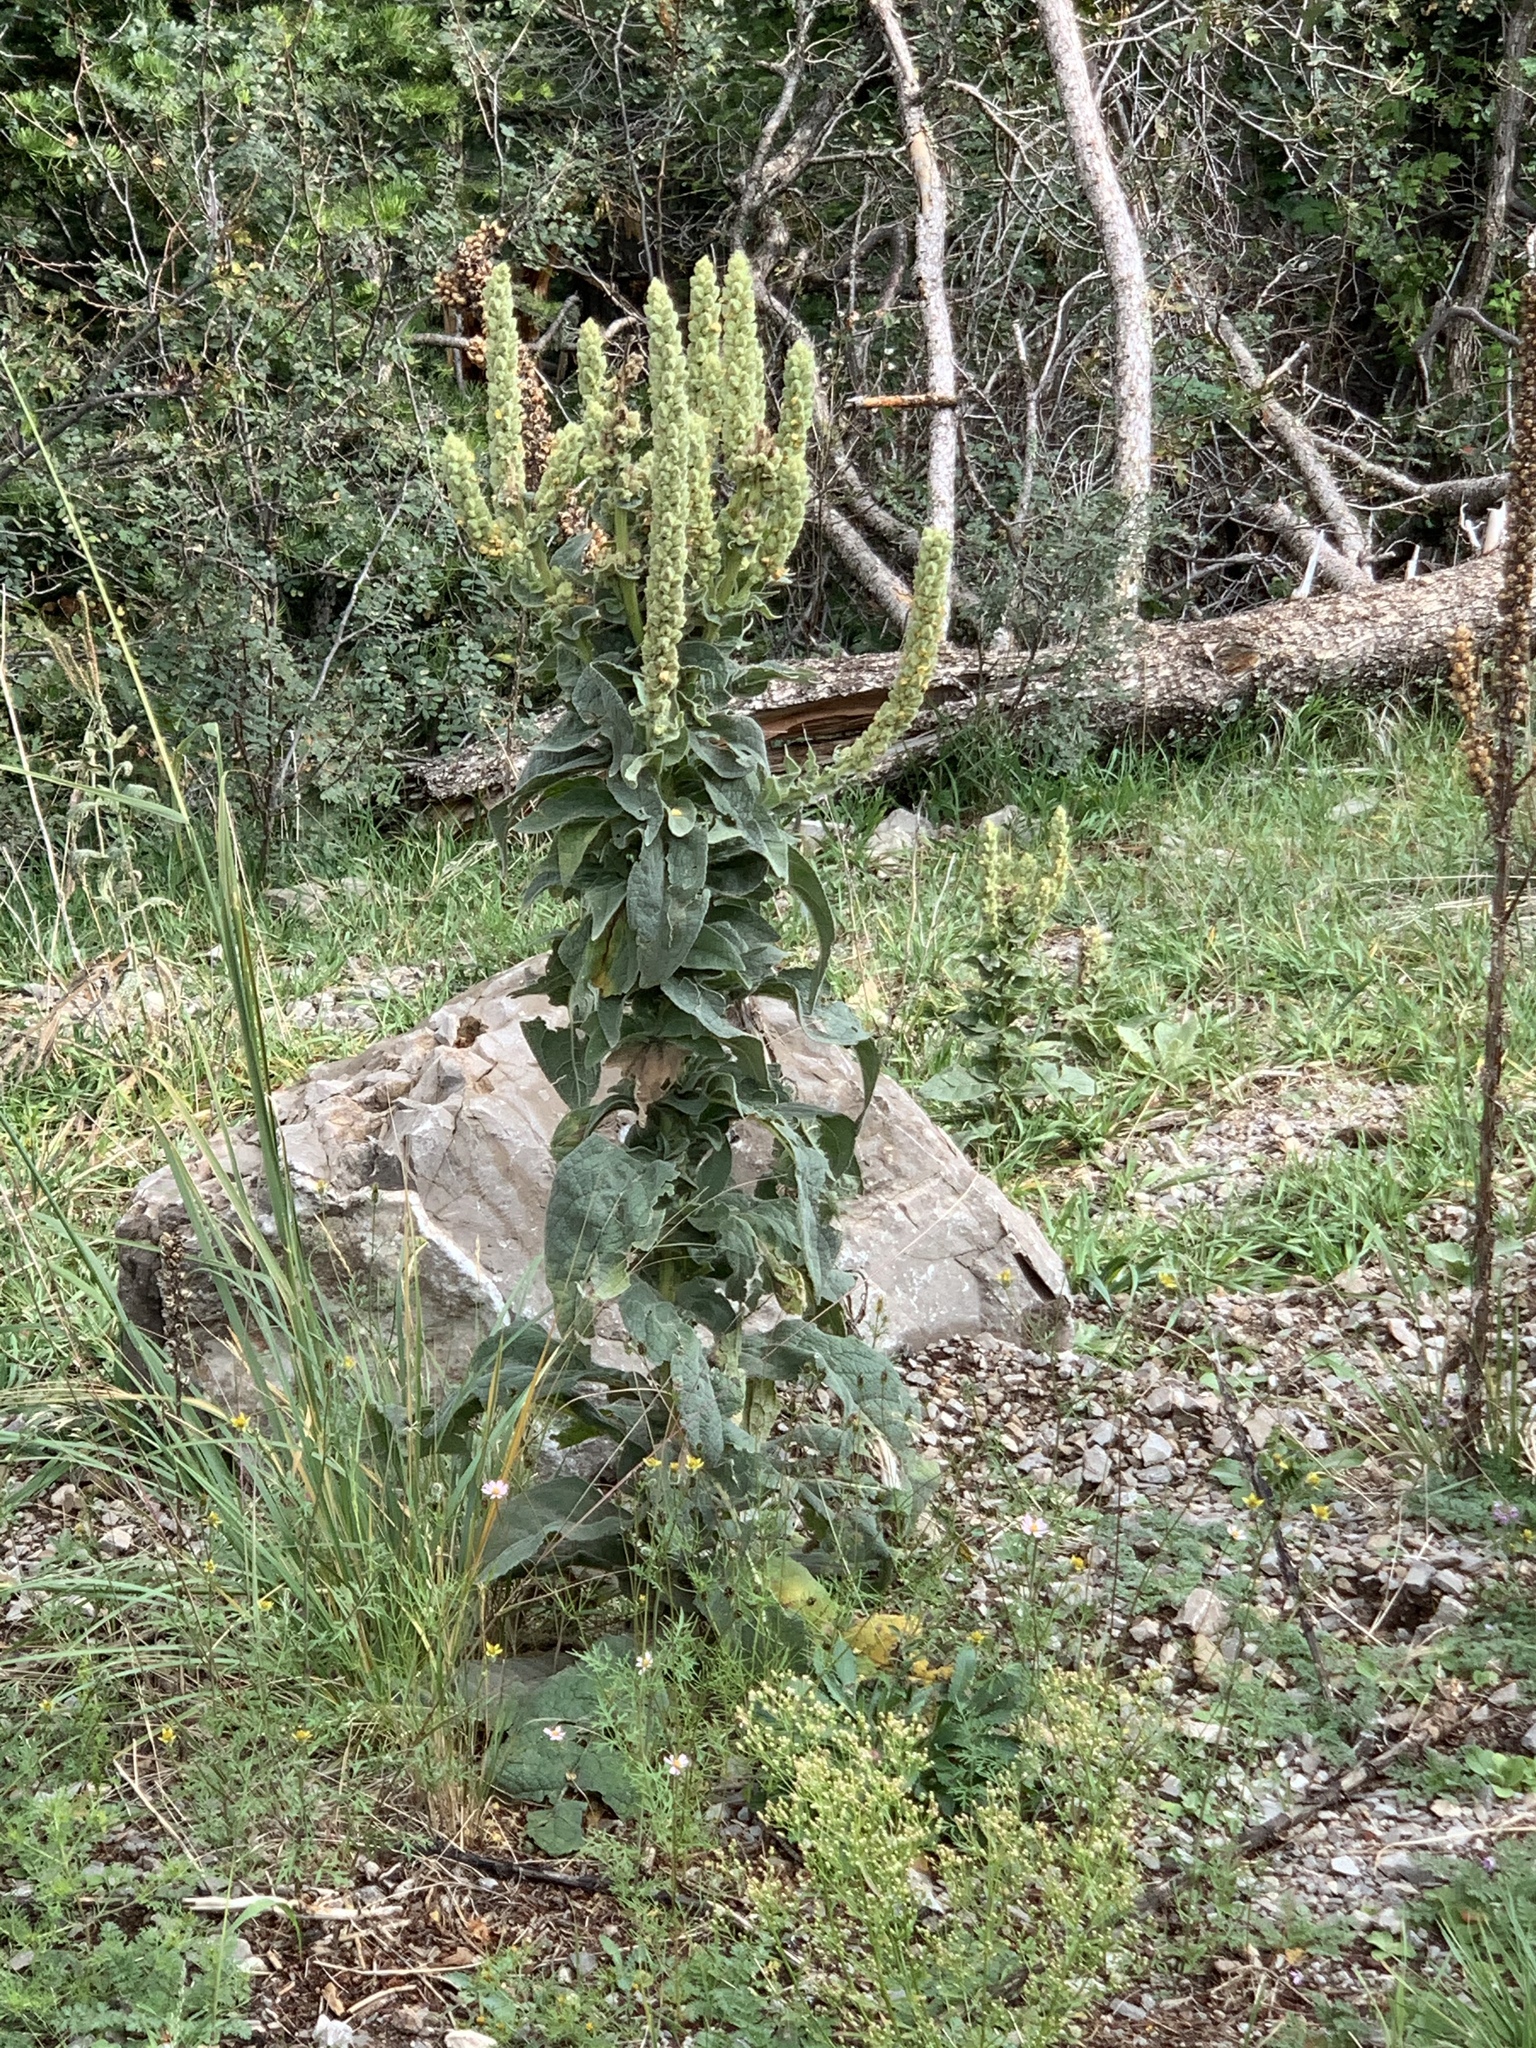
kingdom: Plantae
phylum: Tracheophyta
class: Magnoliopsida
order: Lamiales
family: Scrophulariaceae
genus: Verbascum
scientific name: Verbascum thapsus
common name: Common mullein
